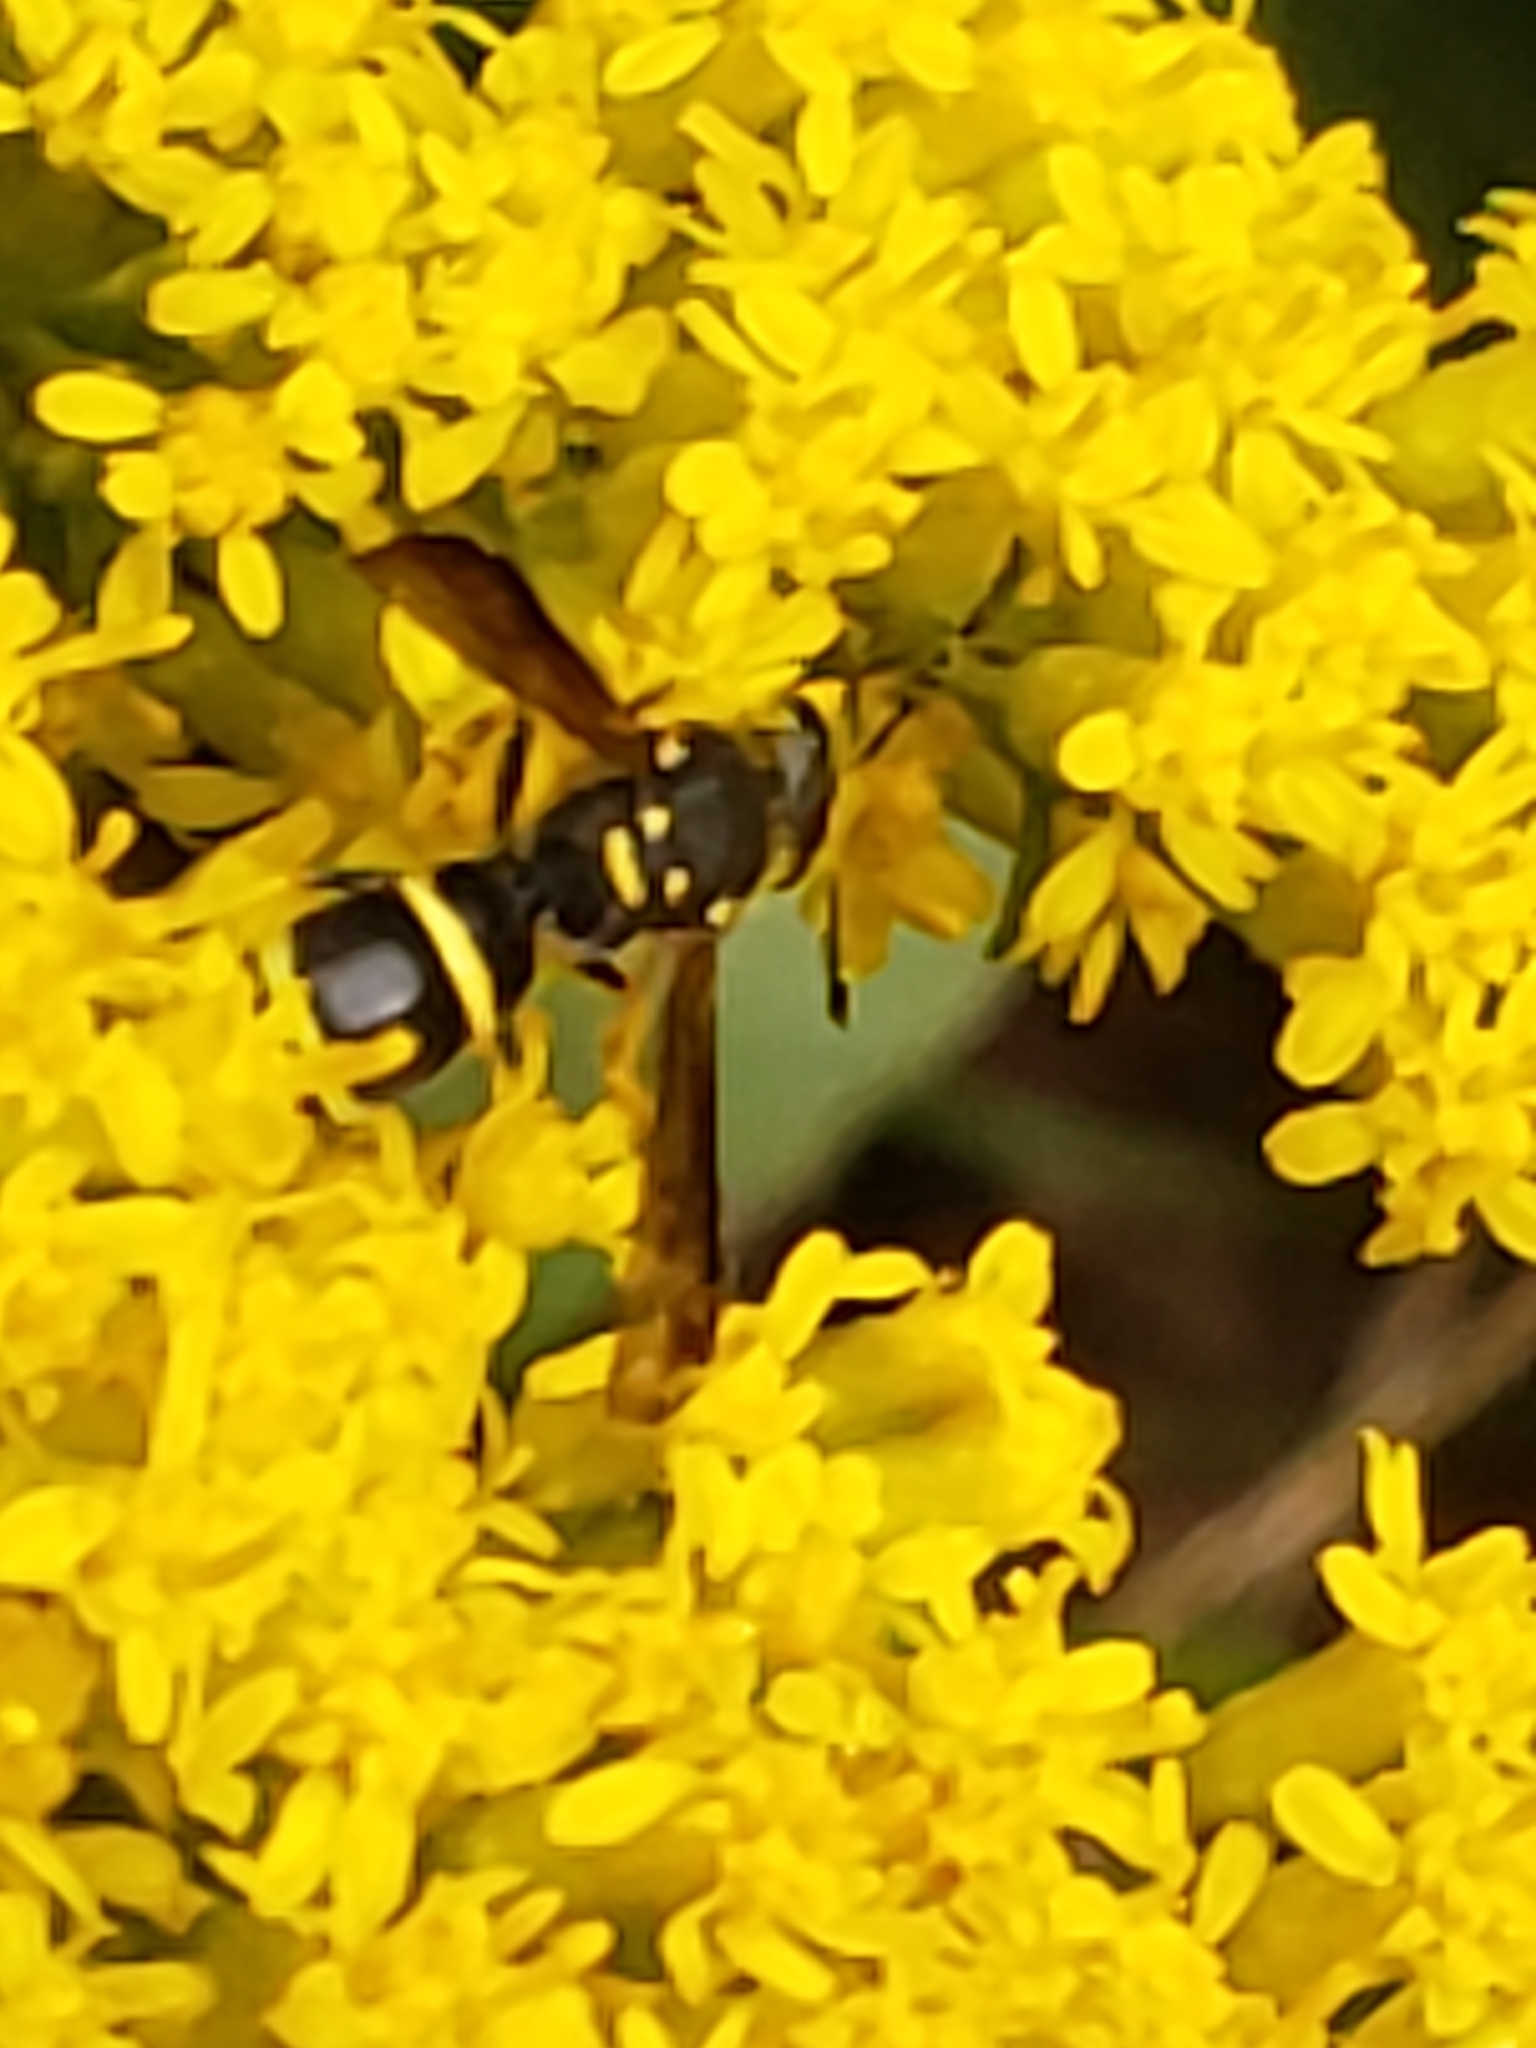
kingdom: Animalia
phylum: Arthropoda
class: Insecta
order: Hymenoptera
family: Vespidae
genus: Ancistrocerus
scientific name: Ancistrocerus adiabatus
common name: Bramble mason wasp
